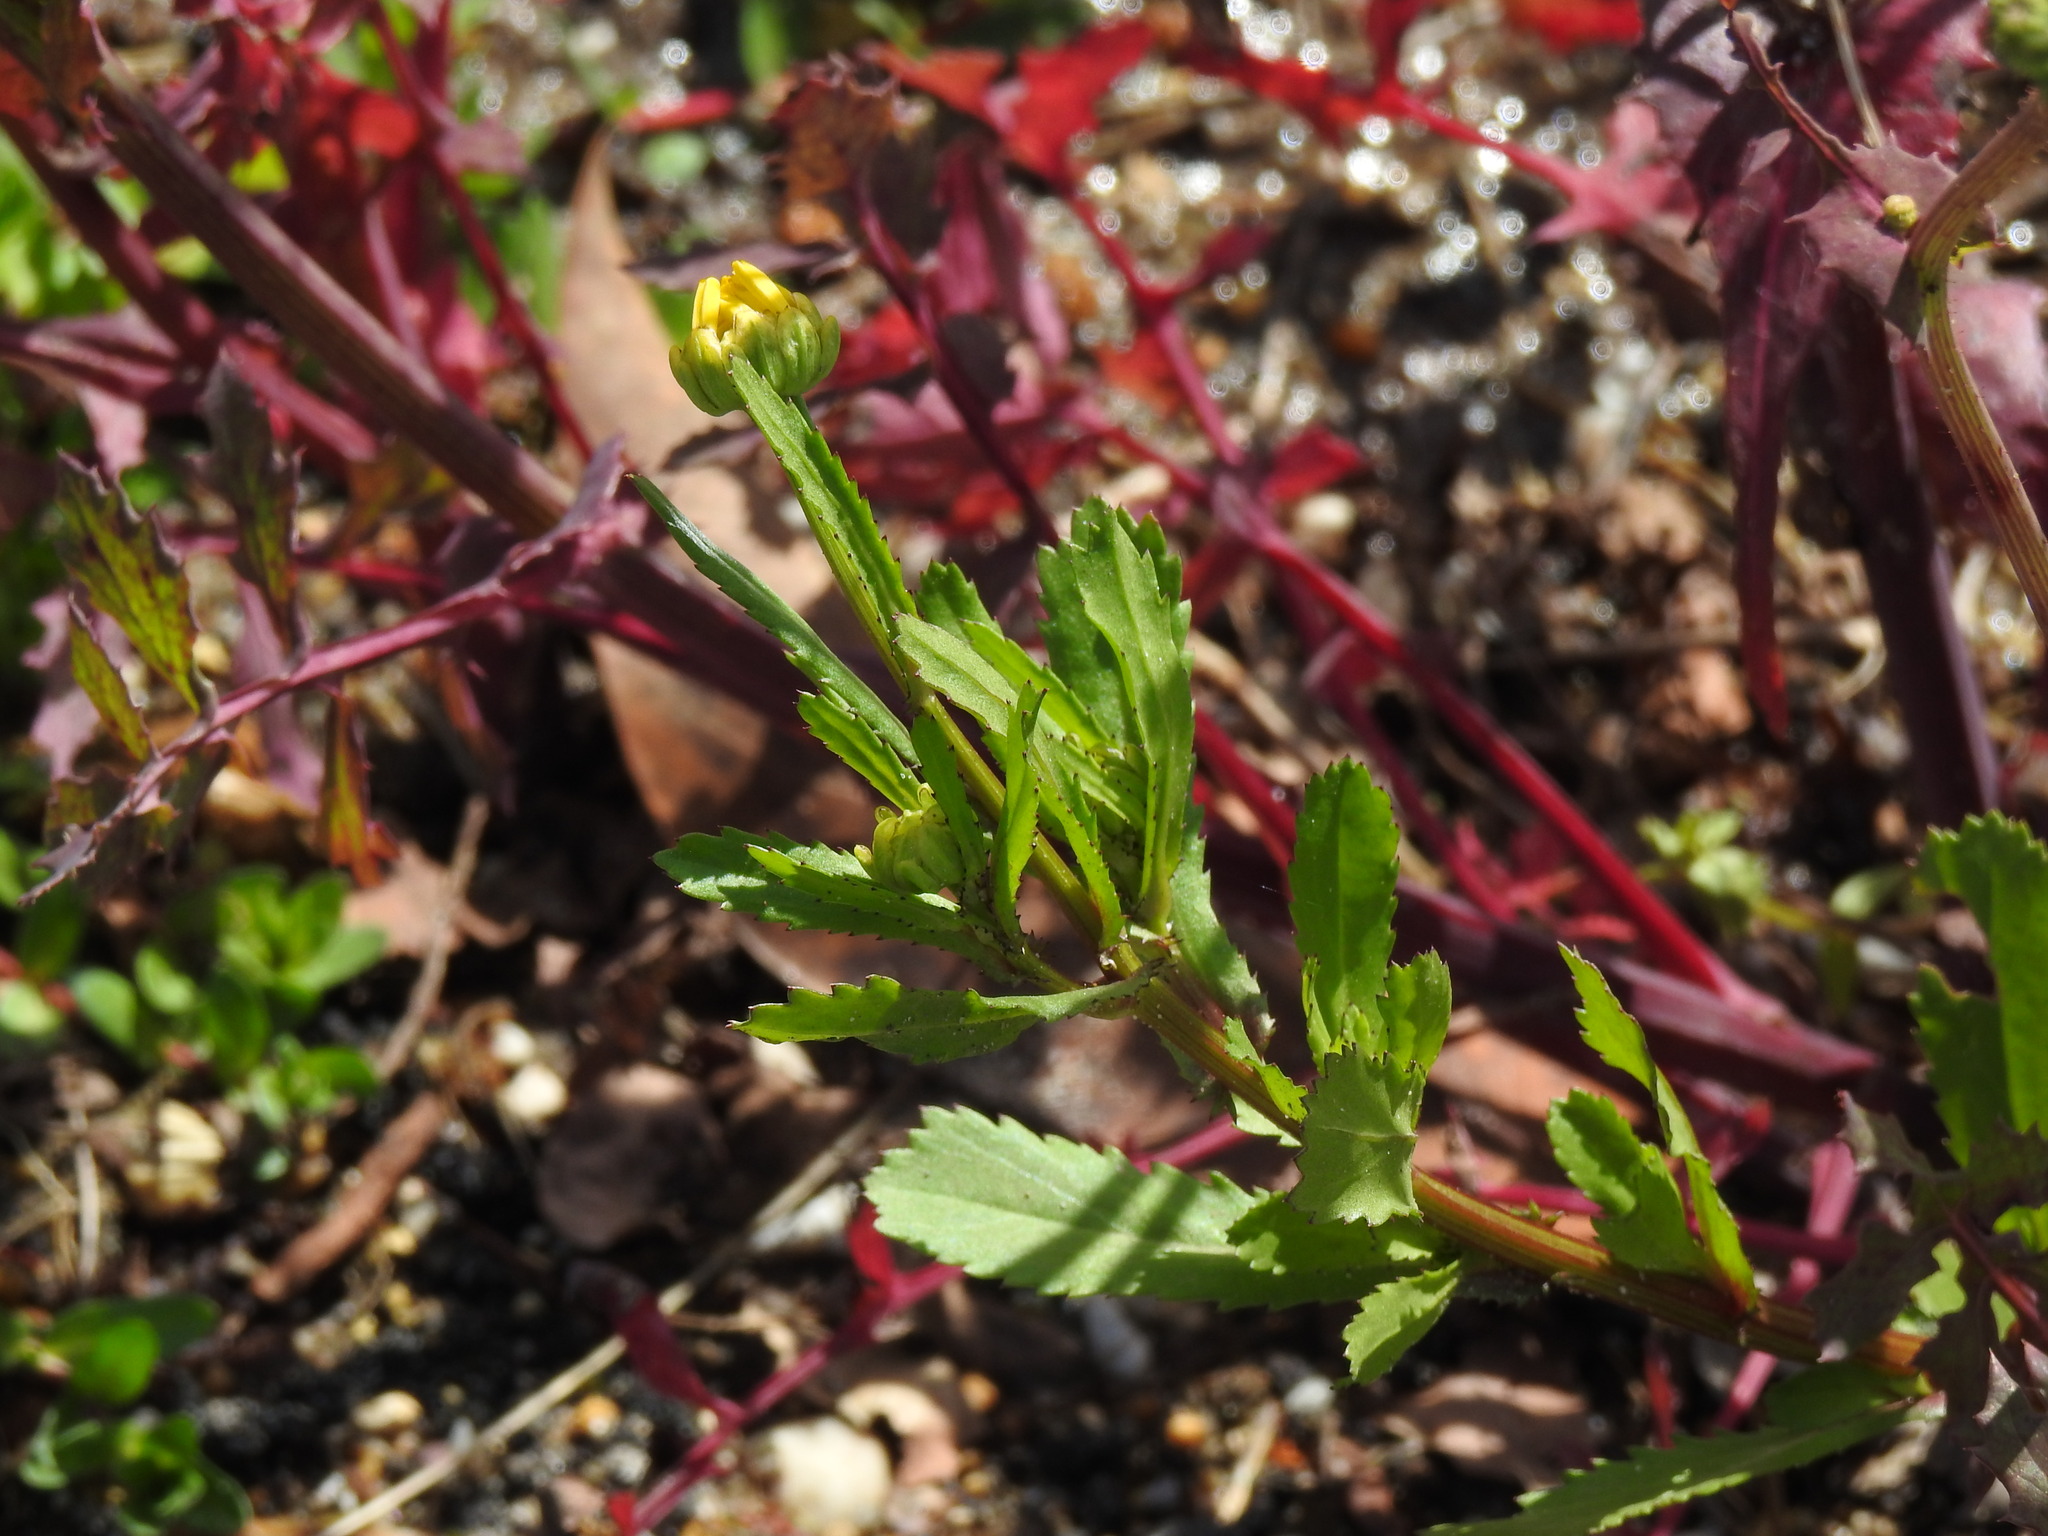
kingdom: Plantae
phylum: Tracheophyta
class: Magnoliopsida
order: Asterales
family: Asteraceae
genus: Coleostephus
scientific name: Coleostephus myconis
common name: Mediterranean marigold
